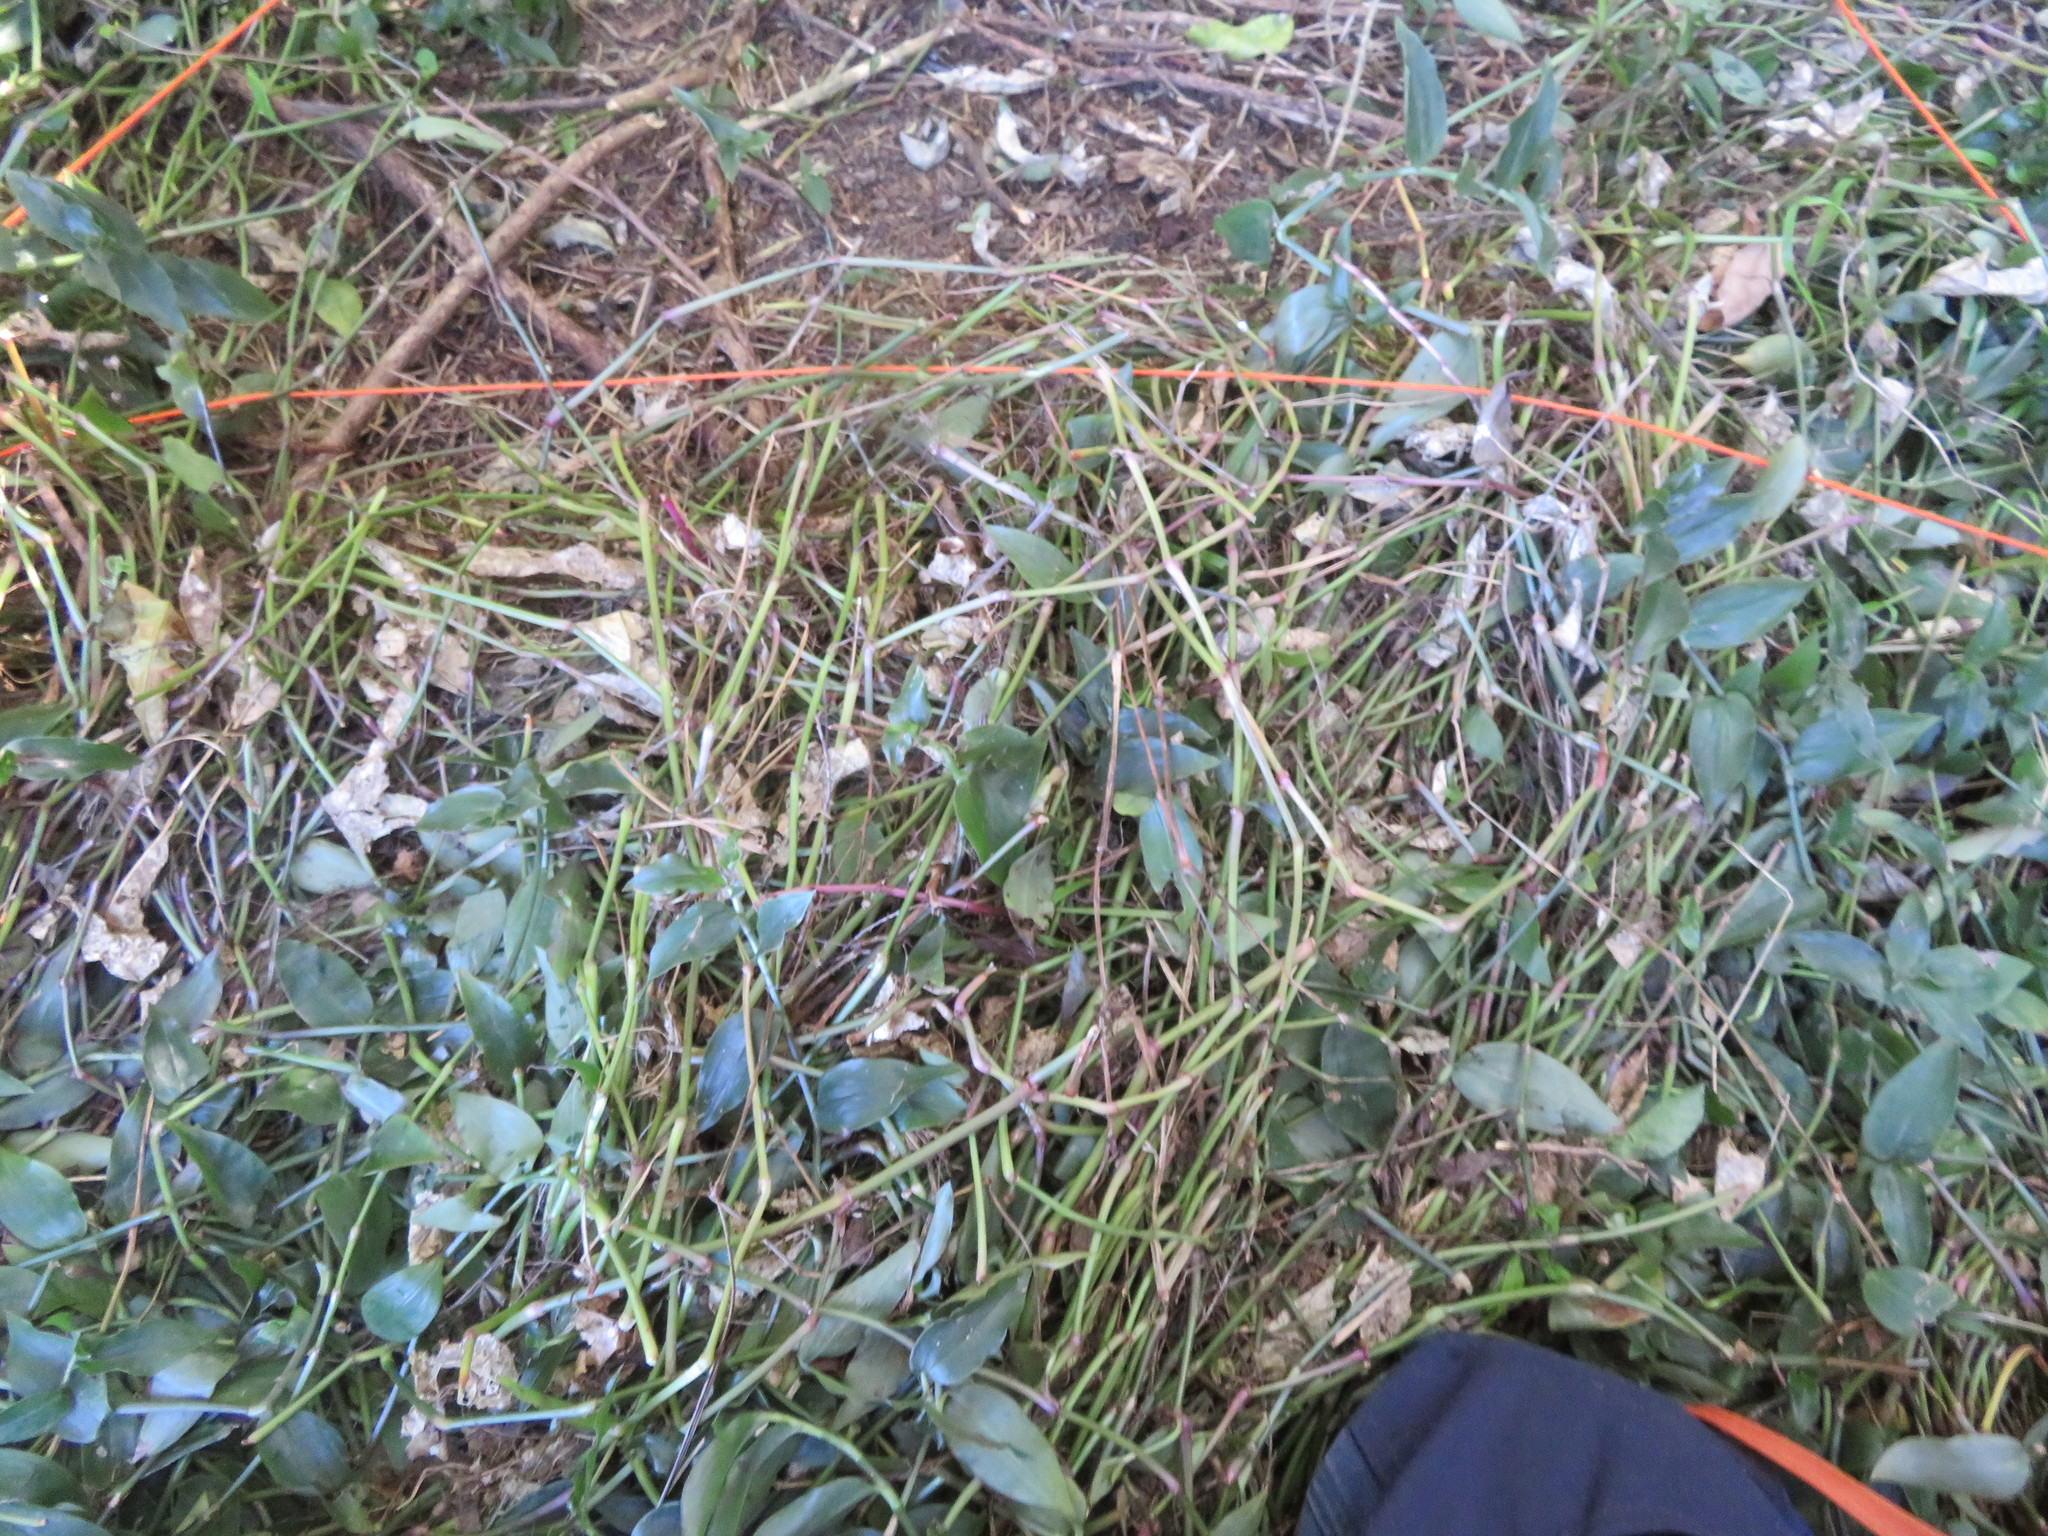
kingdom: Plantae
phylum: Tracheophyta
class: Liliopsida
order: Commelinales
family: Commelinaceae
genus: Tradescantia
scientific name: Tradescantia fluminensis
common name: Wandering-jew
